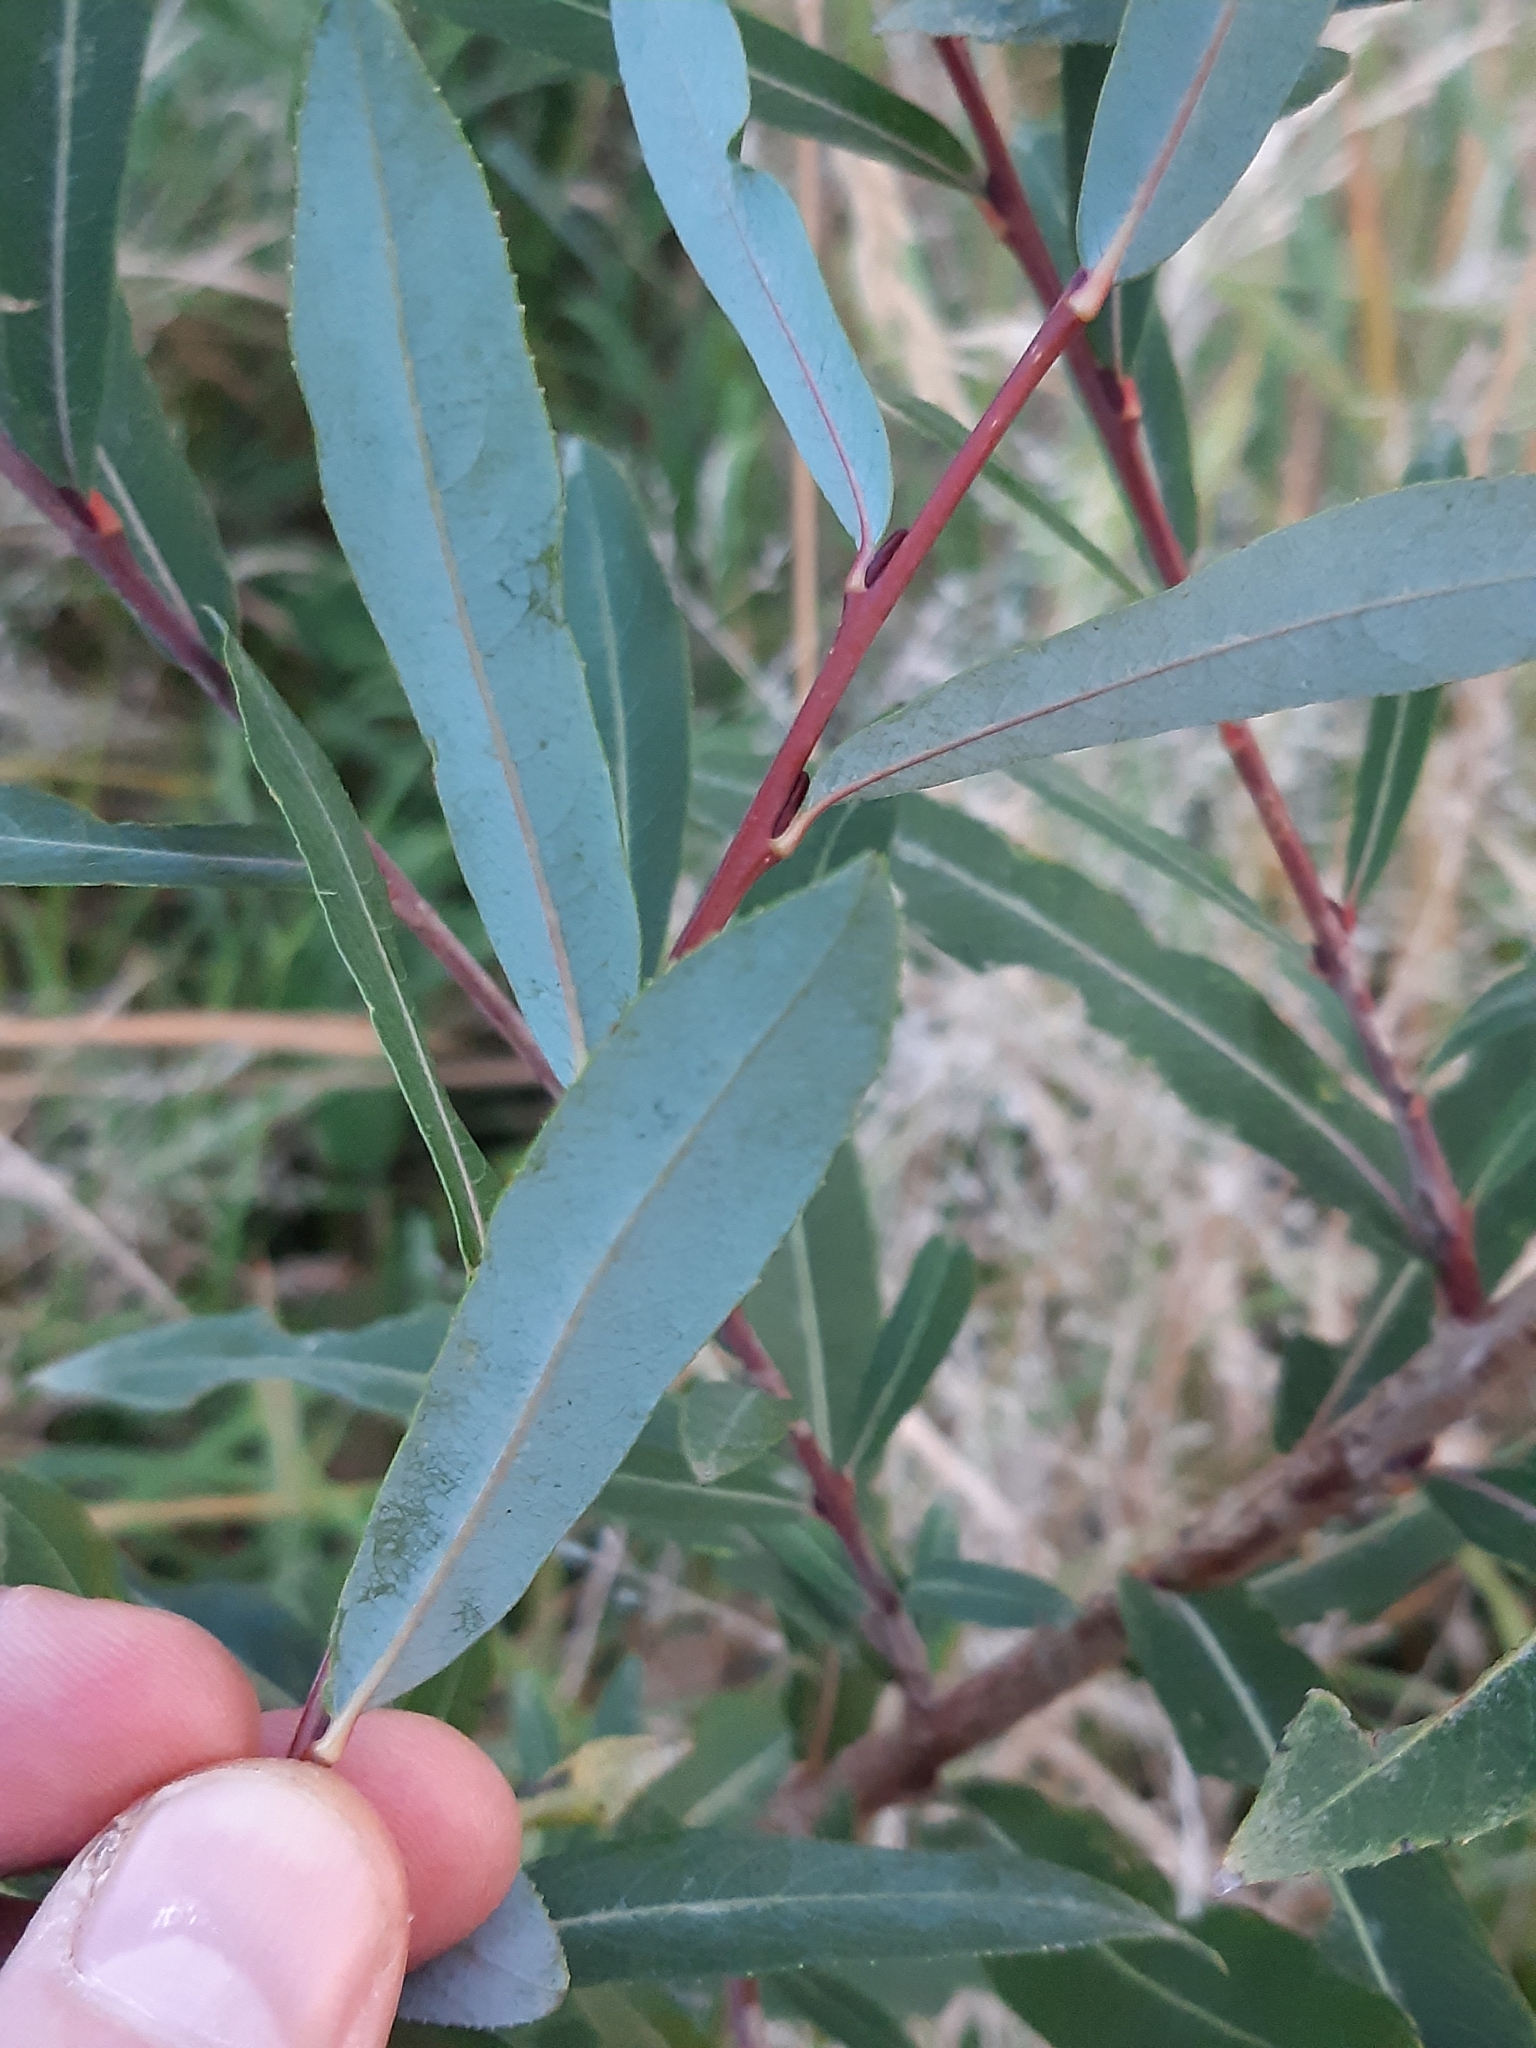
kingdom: Plantae
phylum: Tracheophyta
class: Magnoliopsida
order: Malpighiales
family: Salicaceae
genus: Salix
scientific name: Salix purpurea
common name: Purple willow
